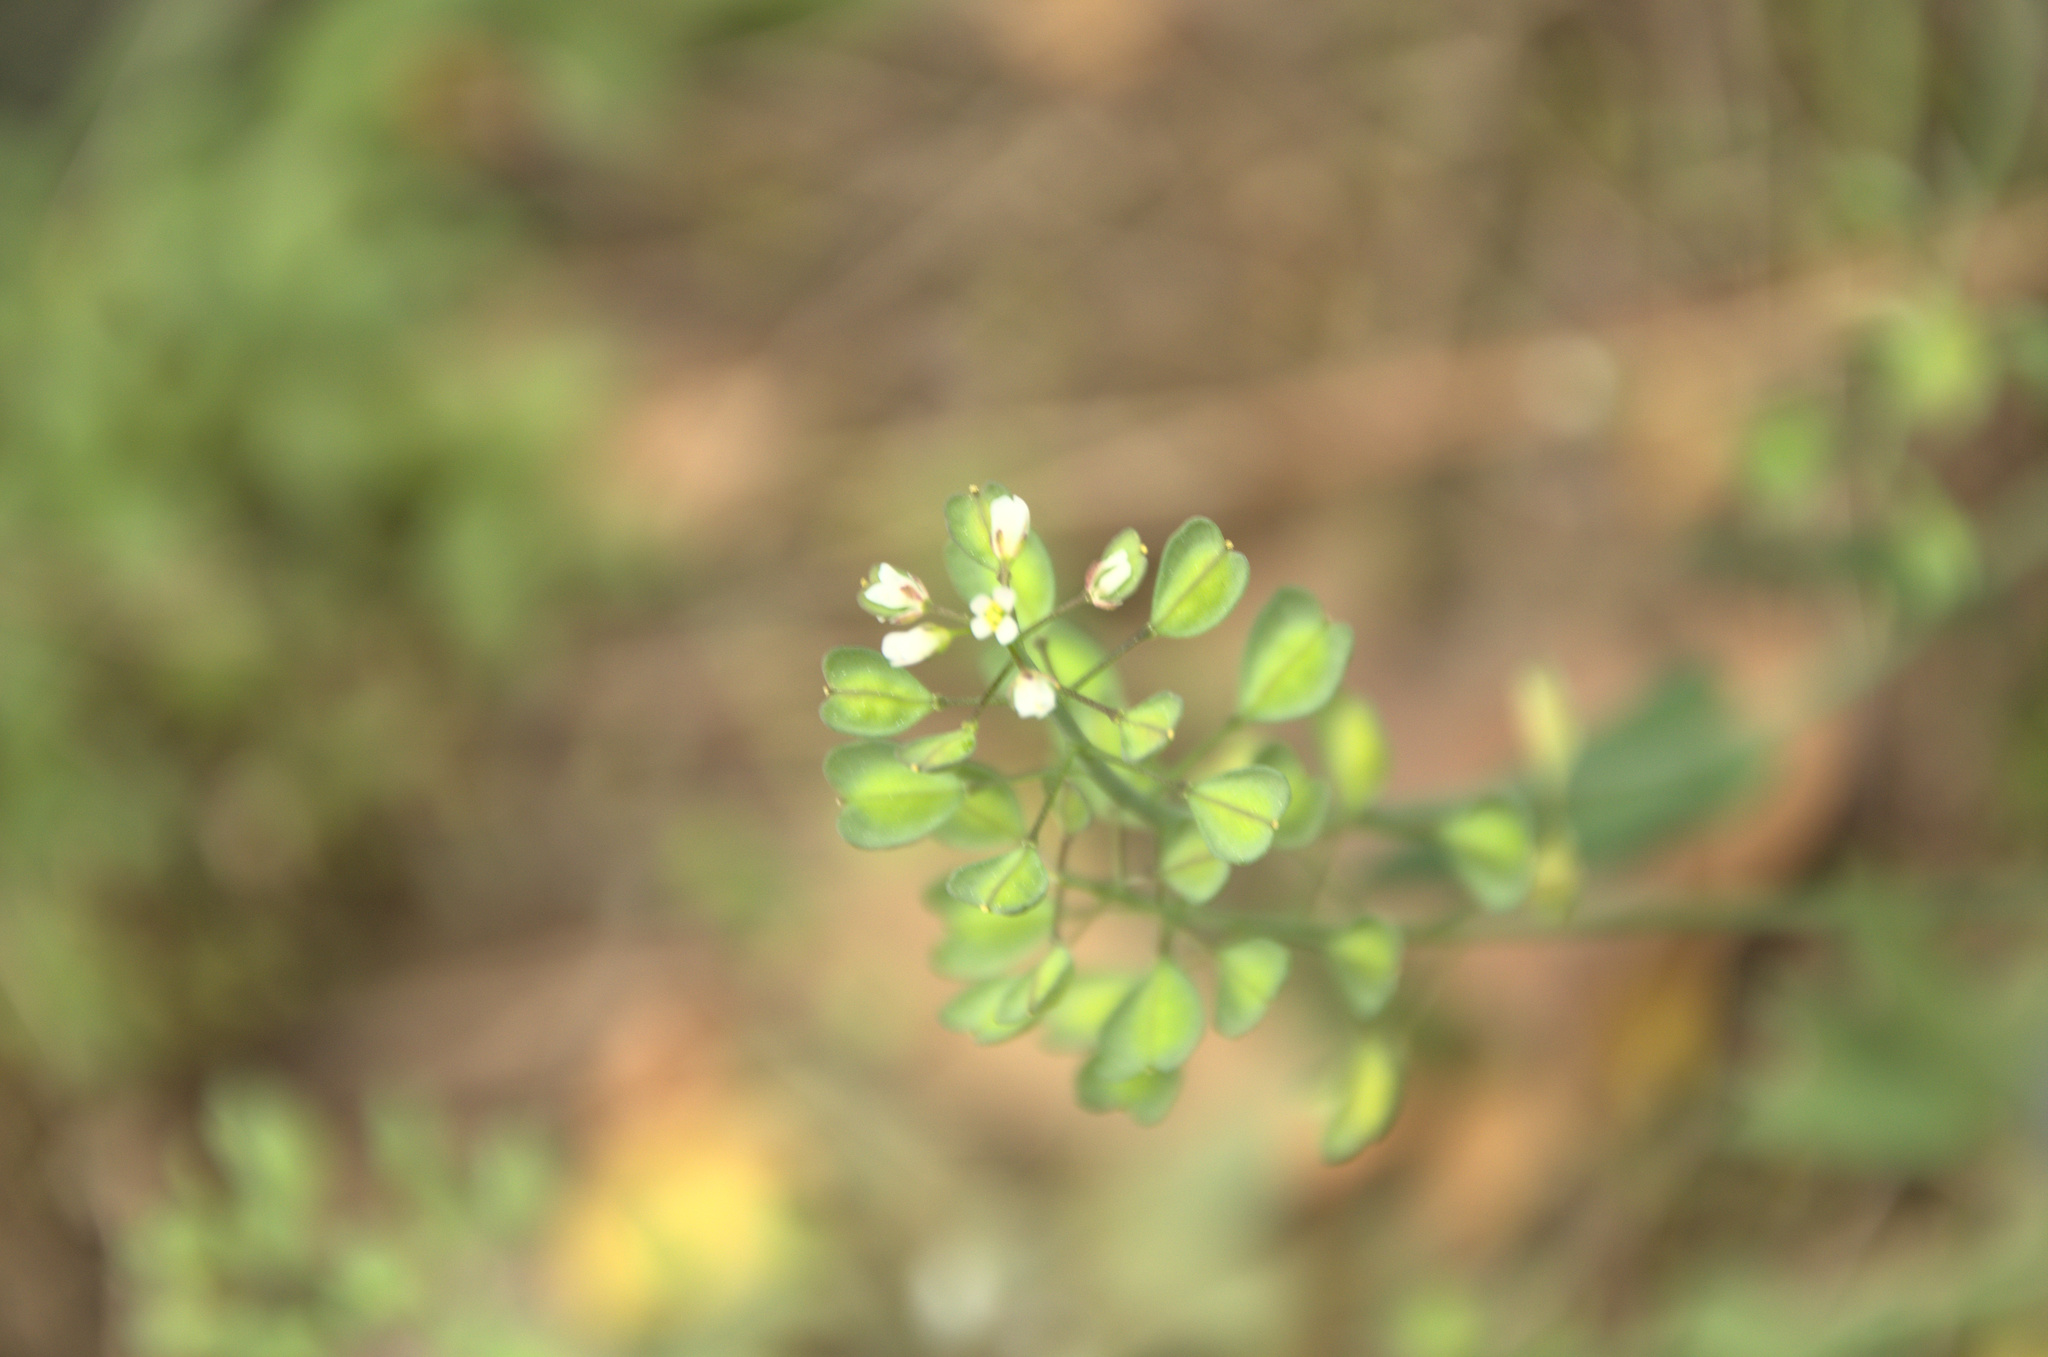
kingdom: Plantae
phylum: Tracheophyta
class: Magnoliopsida
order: Brassicales
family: Brassicaceae
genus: Noccaea
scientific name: Noccaea perfoliata
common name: Perfoliate pennycress
